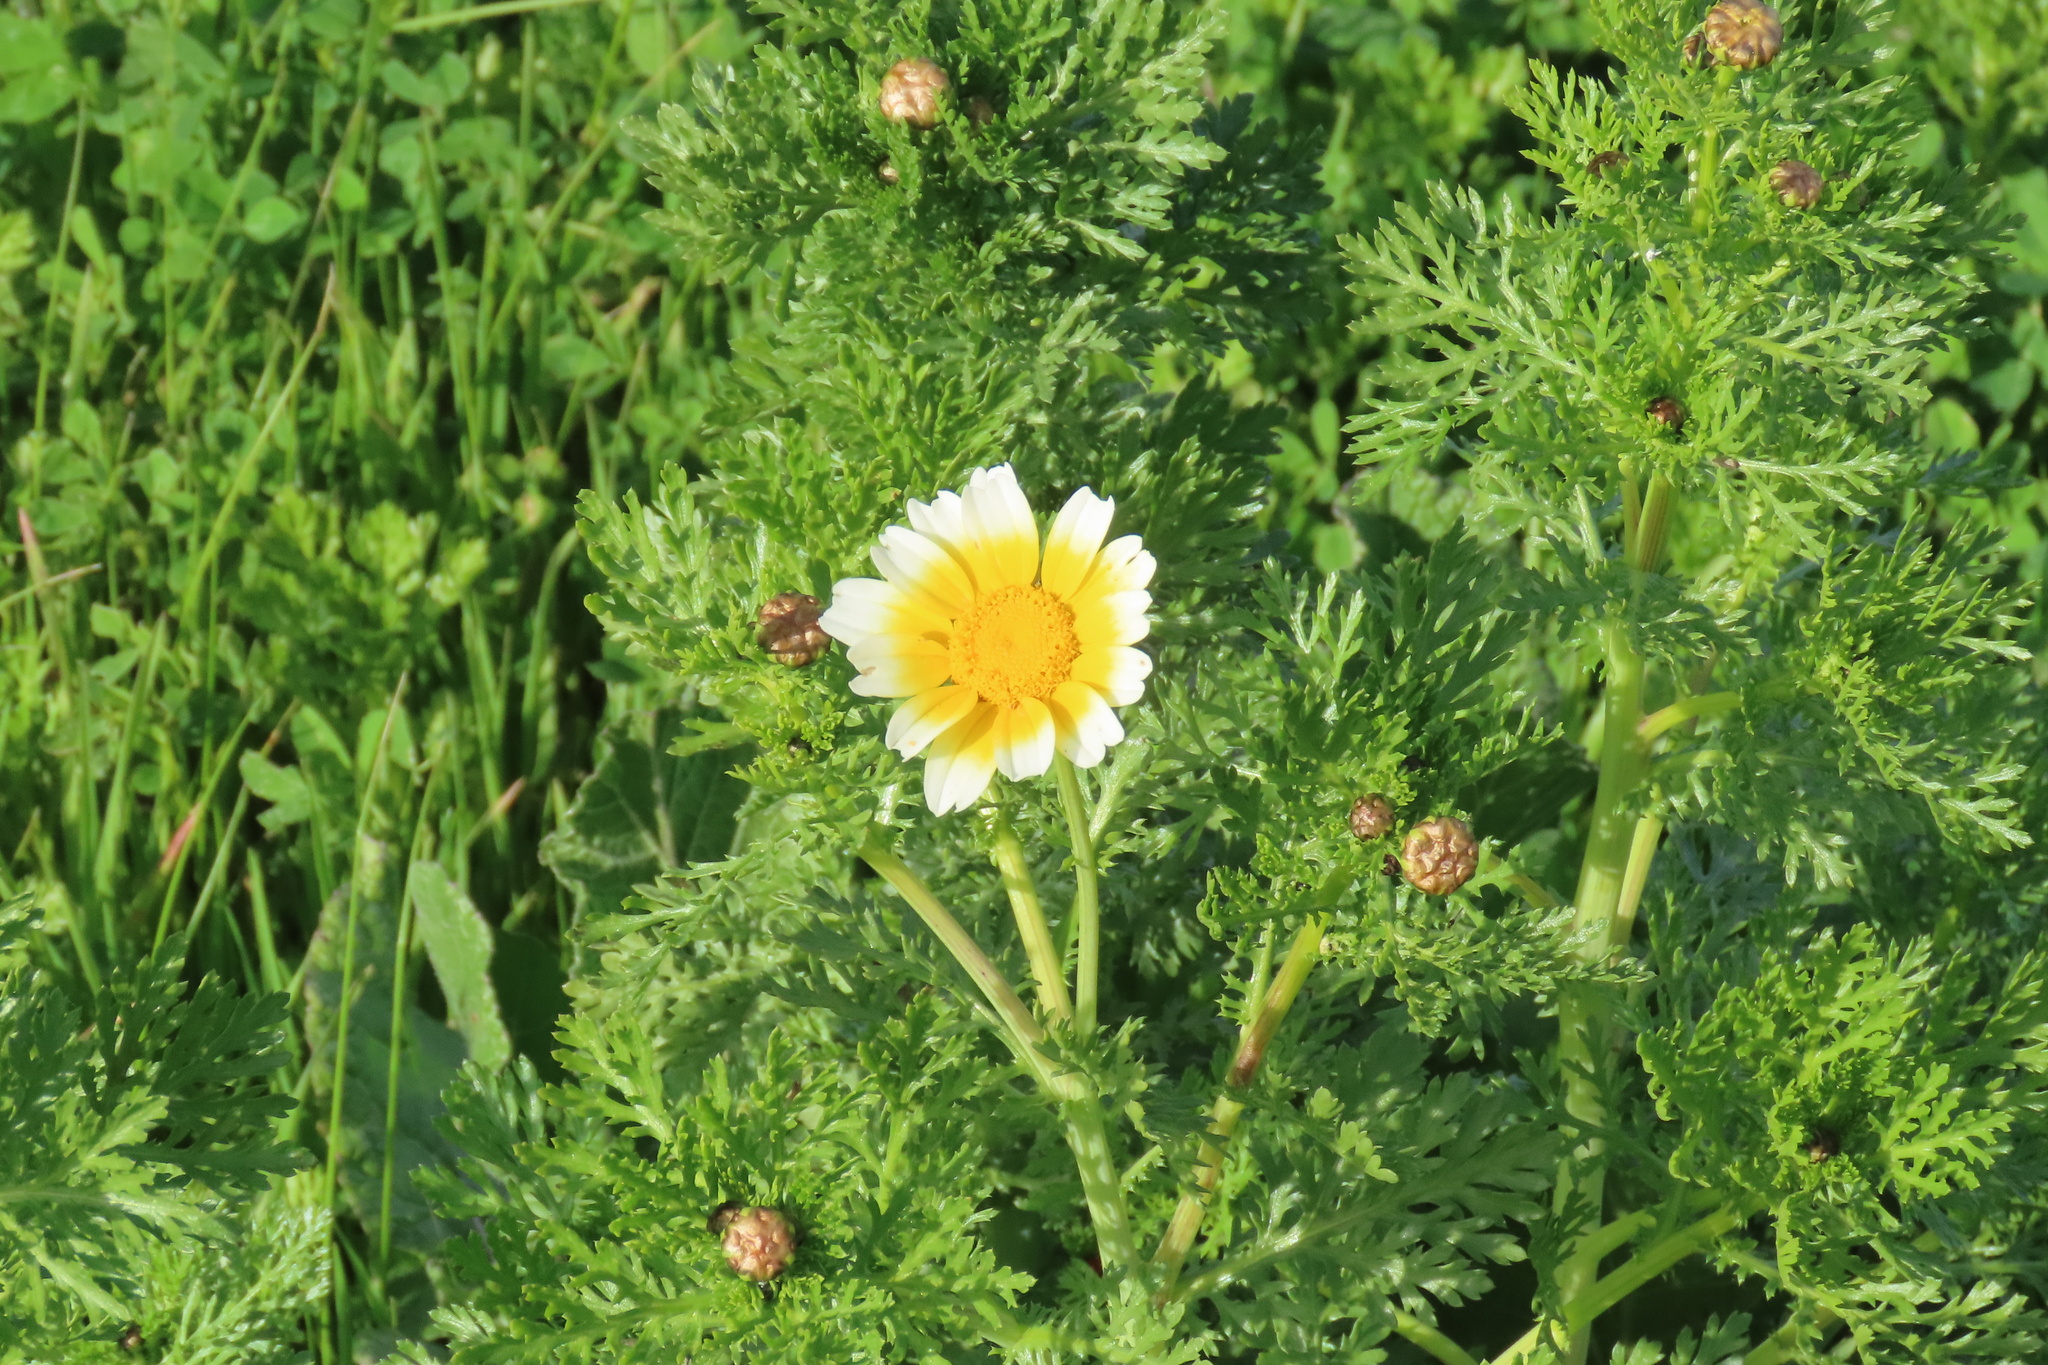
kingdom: Plantae
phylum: Tracheophyta
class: Magnoliopsida
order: Asterales
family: Asteraceae
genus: Glebionis
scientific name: Glebionis coronaria
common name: Crowndaisy
